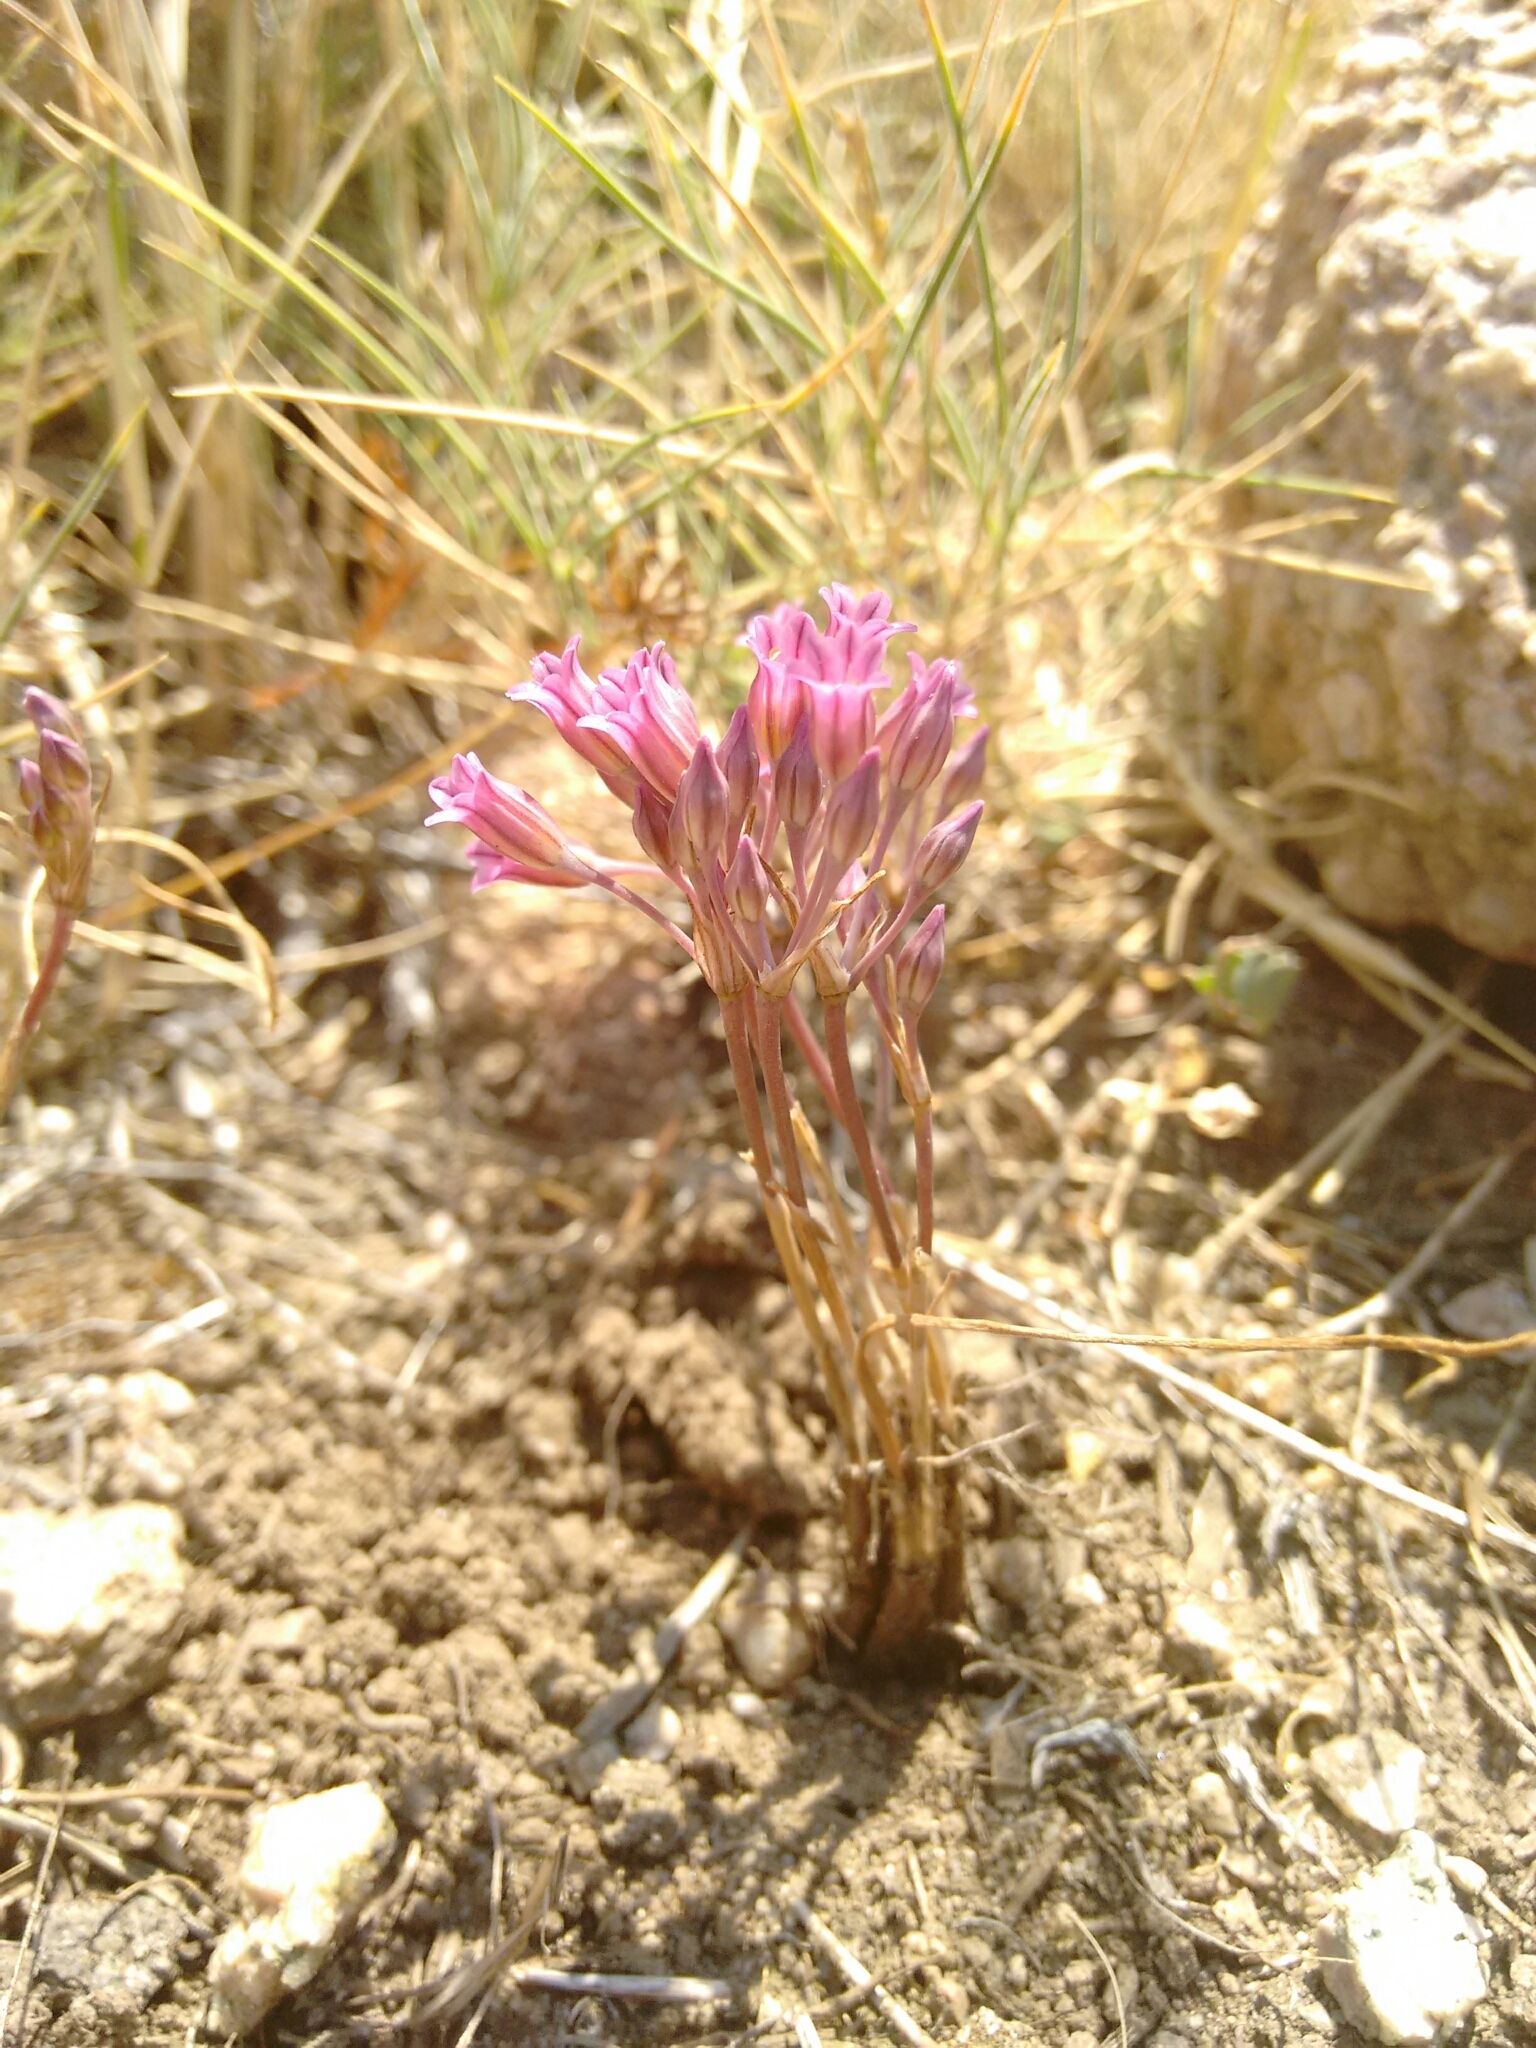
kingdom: Plantae
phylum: Tracheophyta
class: Liliopsida
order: Asparagales
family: Amaryllidaceae
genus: Allium
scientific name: Allium parciflorum
